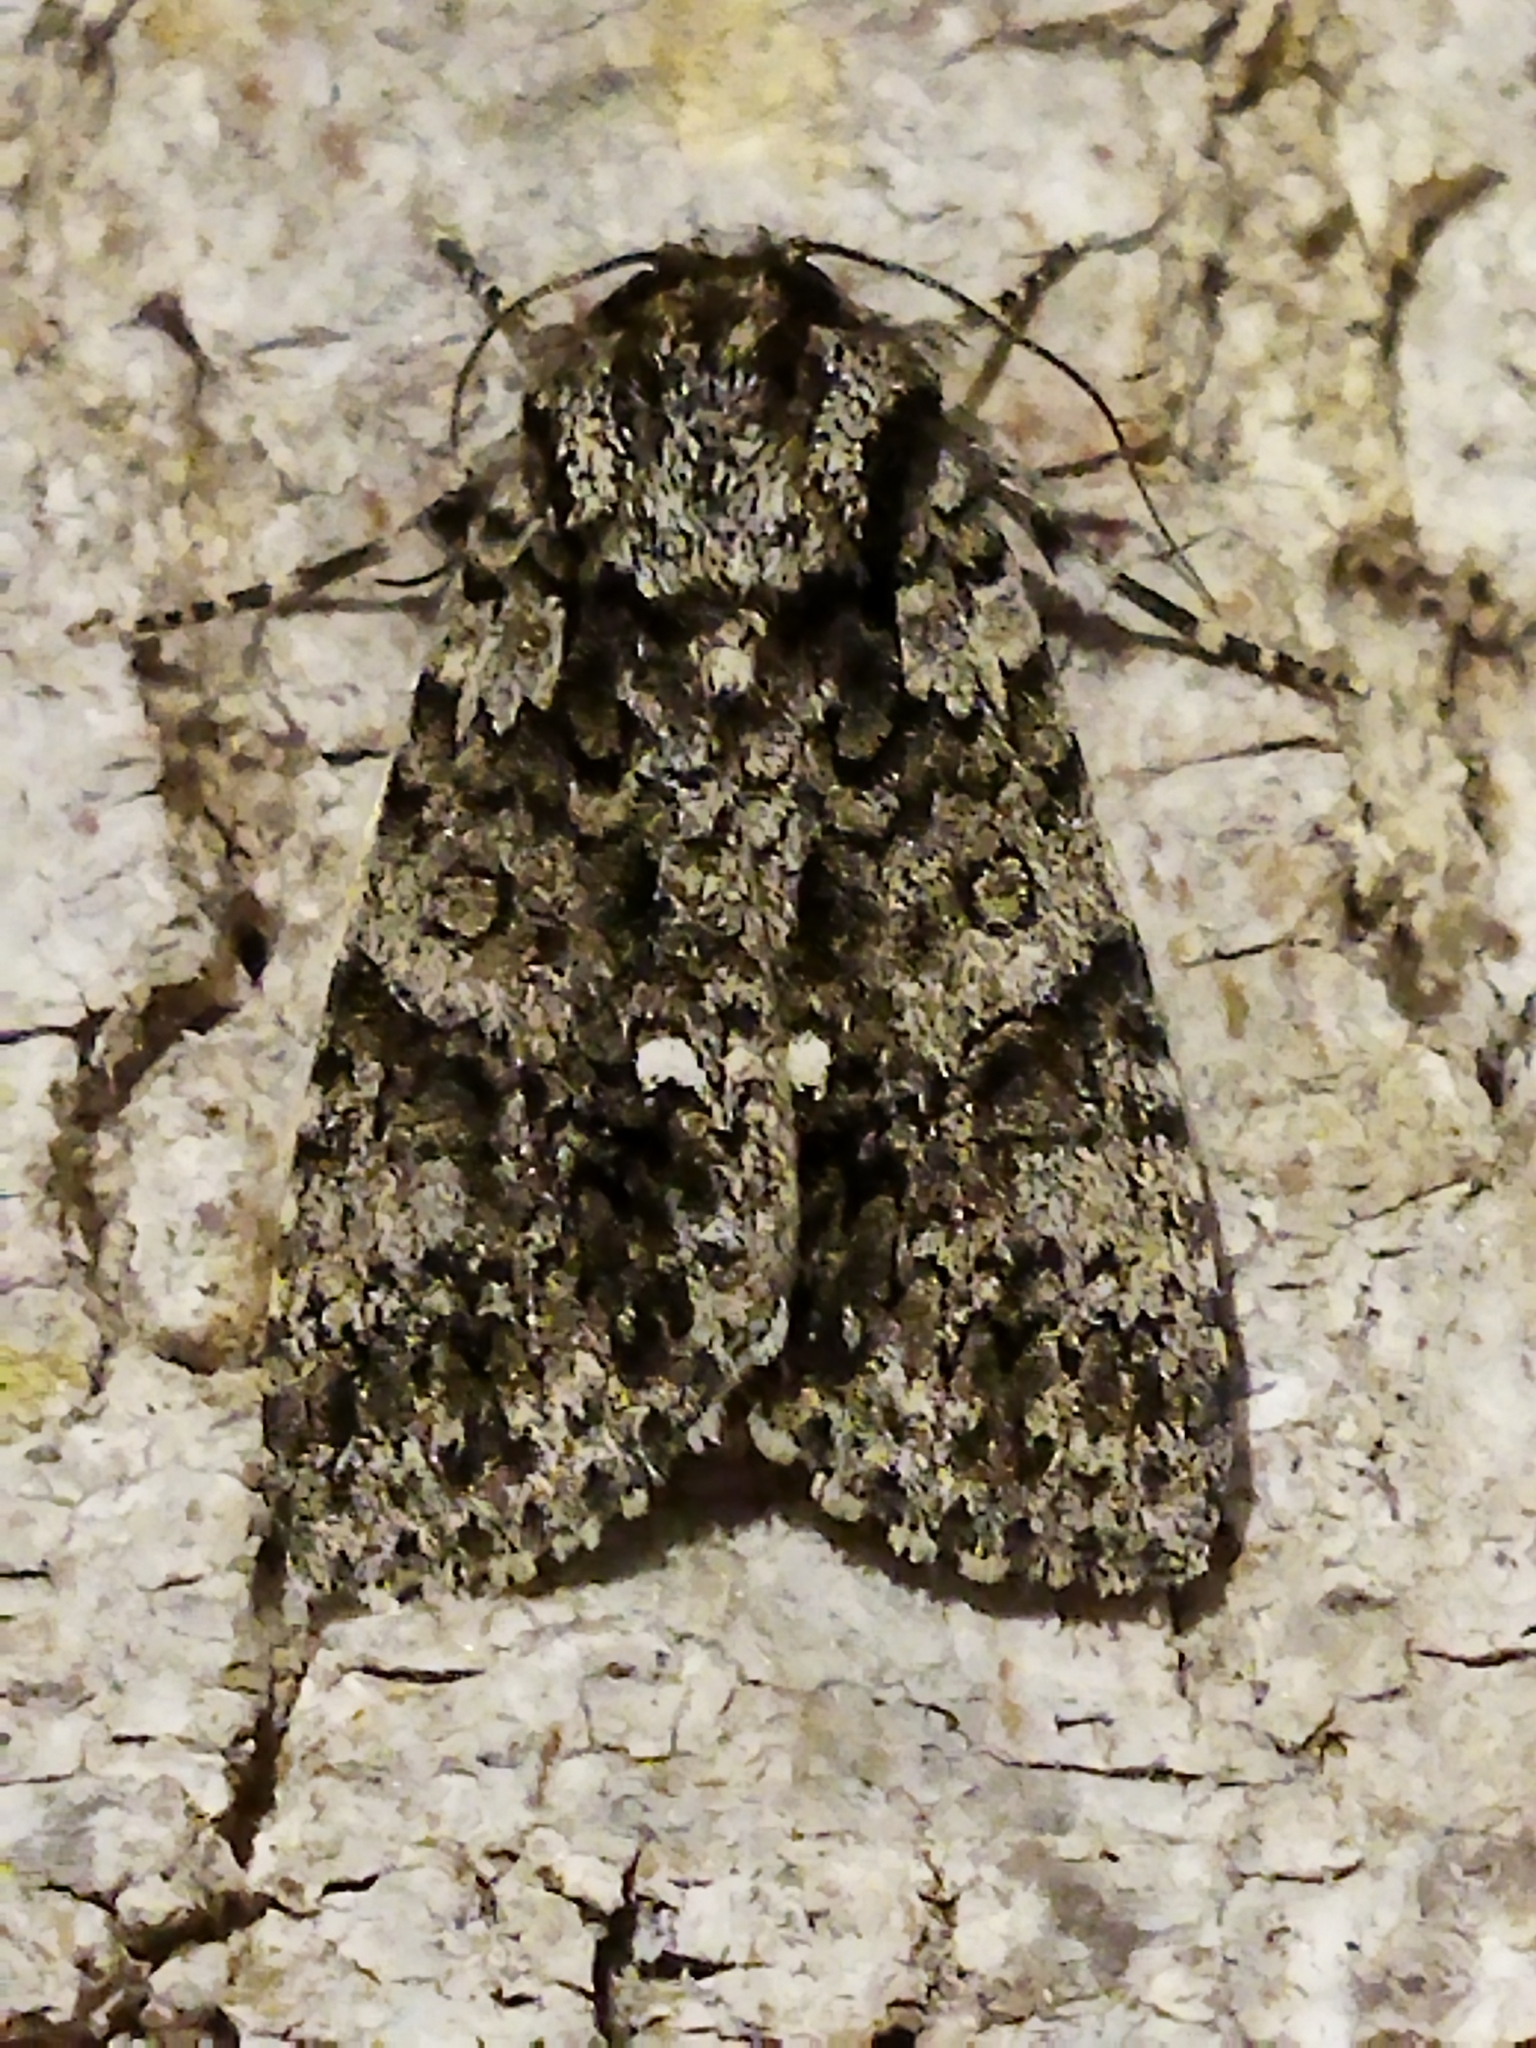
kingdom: Animalia
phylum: Arthropoda
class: Insecta
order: Lepidoptera
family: Noctuidae
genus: Acronicta
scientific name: Acronicta rumicis
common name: Knot grass
